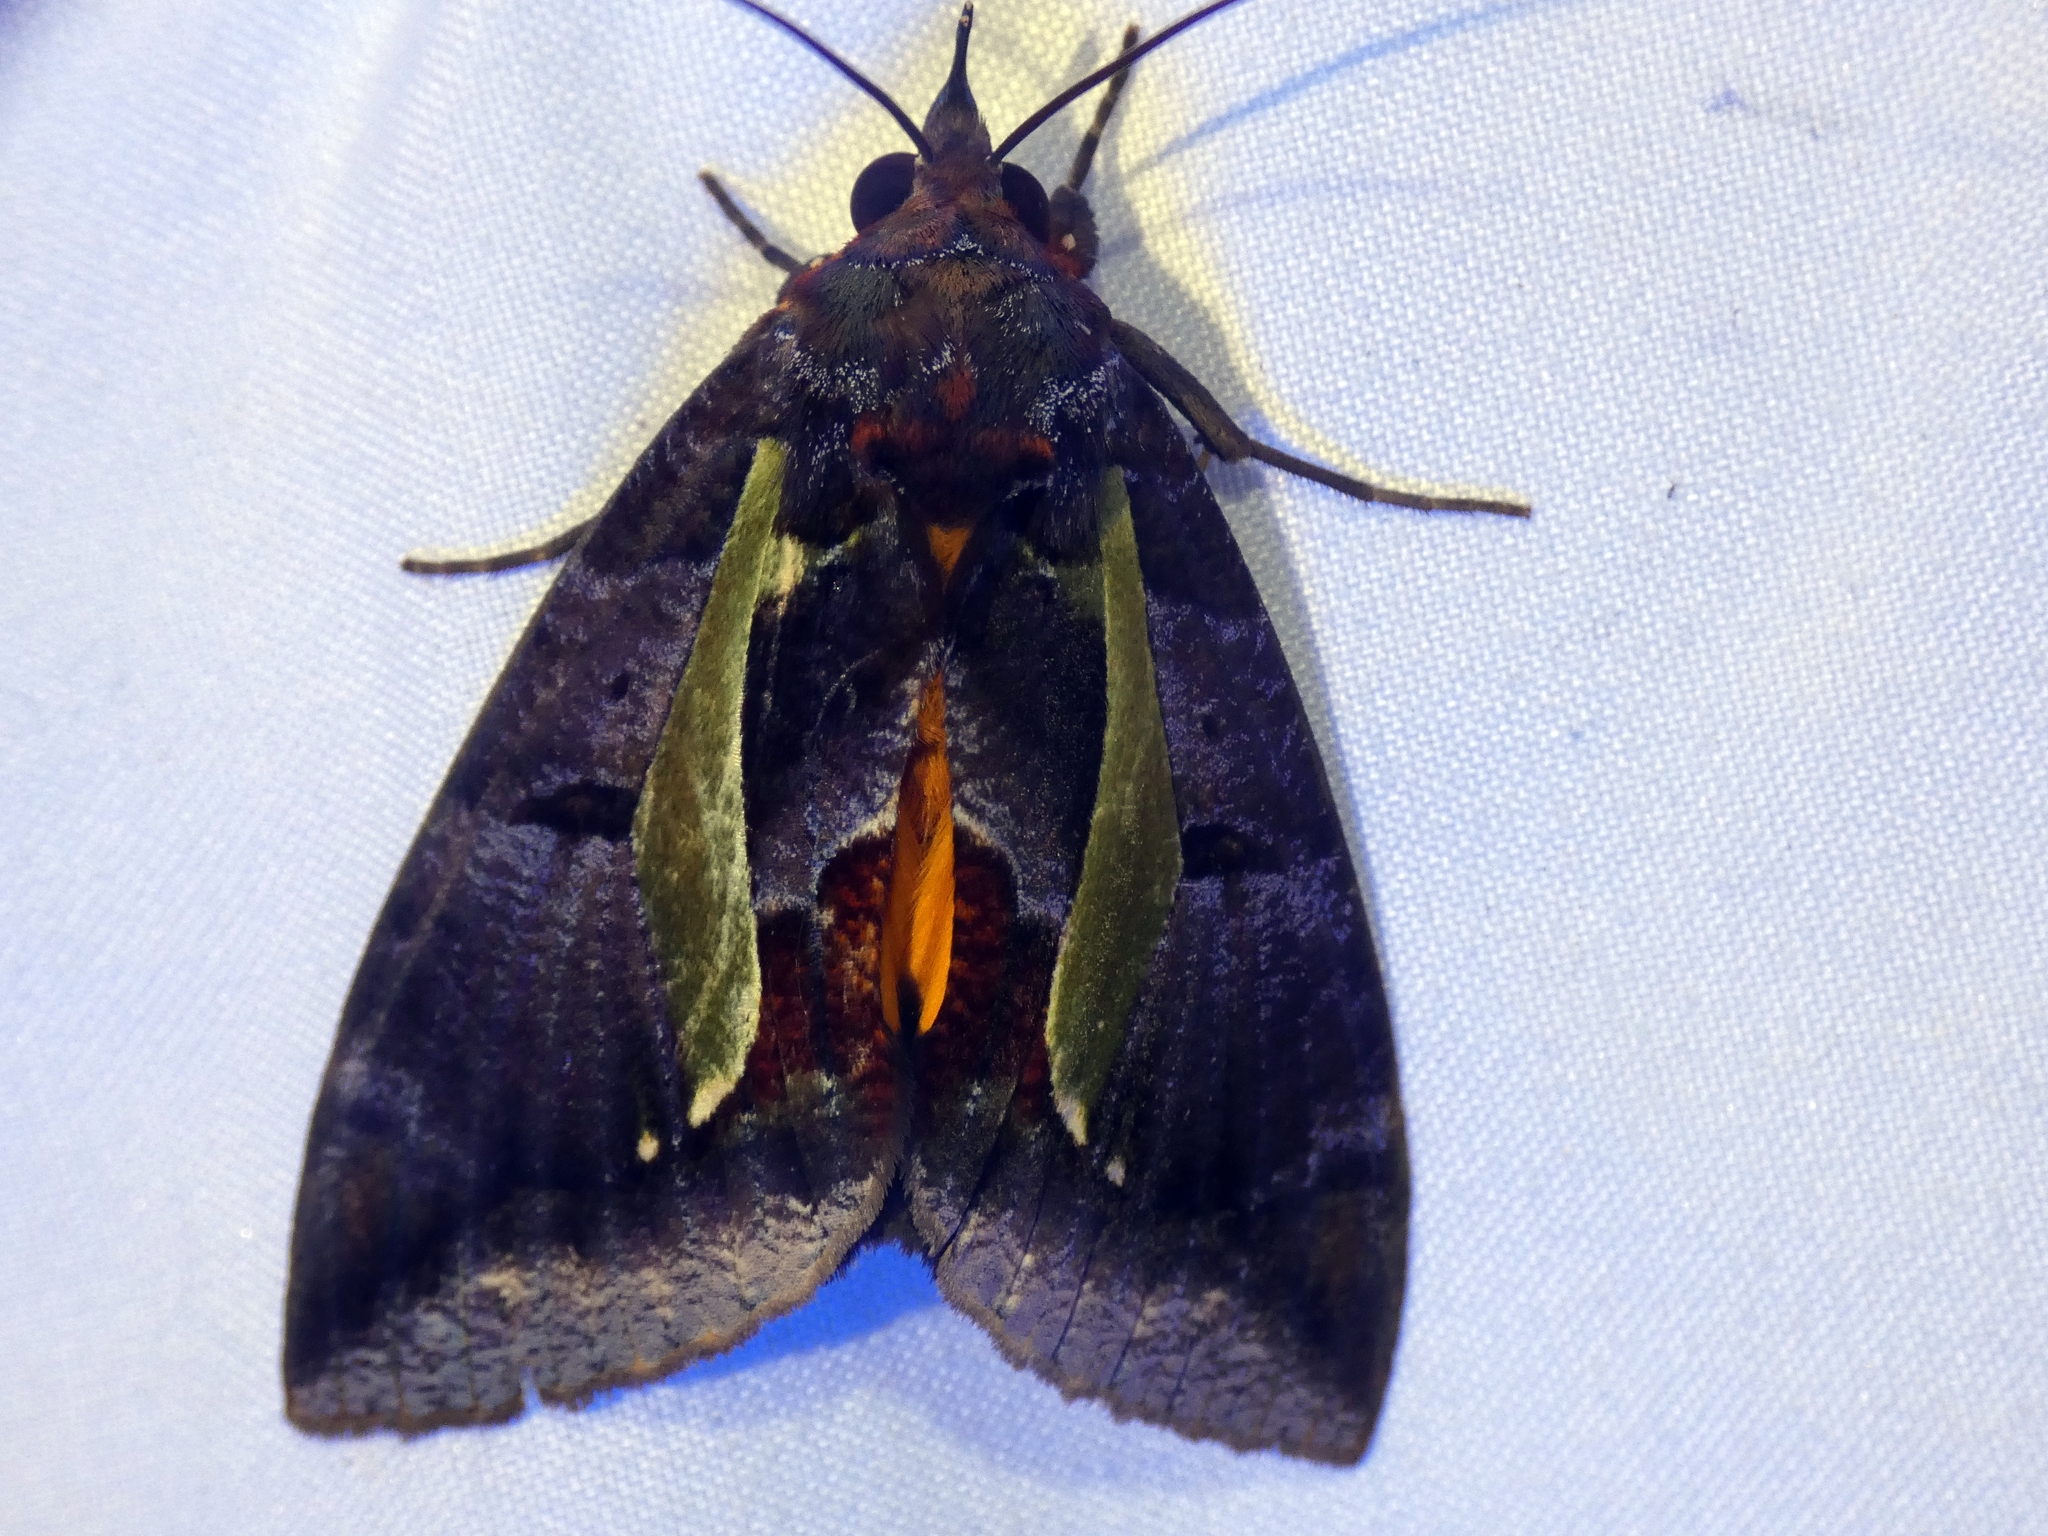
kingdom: Animalia
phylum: Arthropoda
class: Insecta
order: Lepidoptera
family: Erebidae
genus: Eudocima
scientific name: Eudocima iridescens
